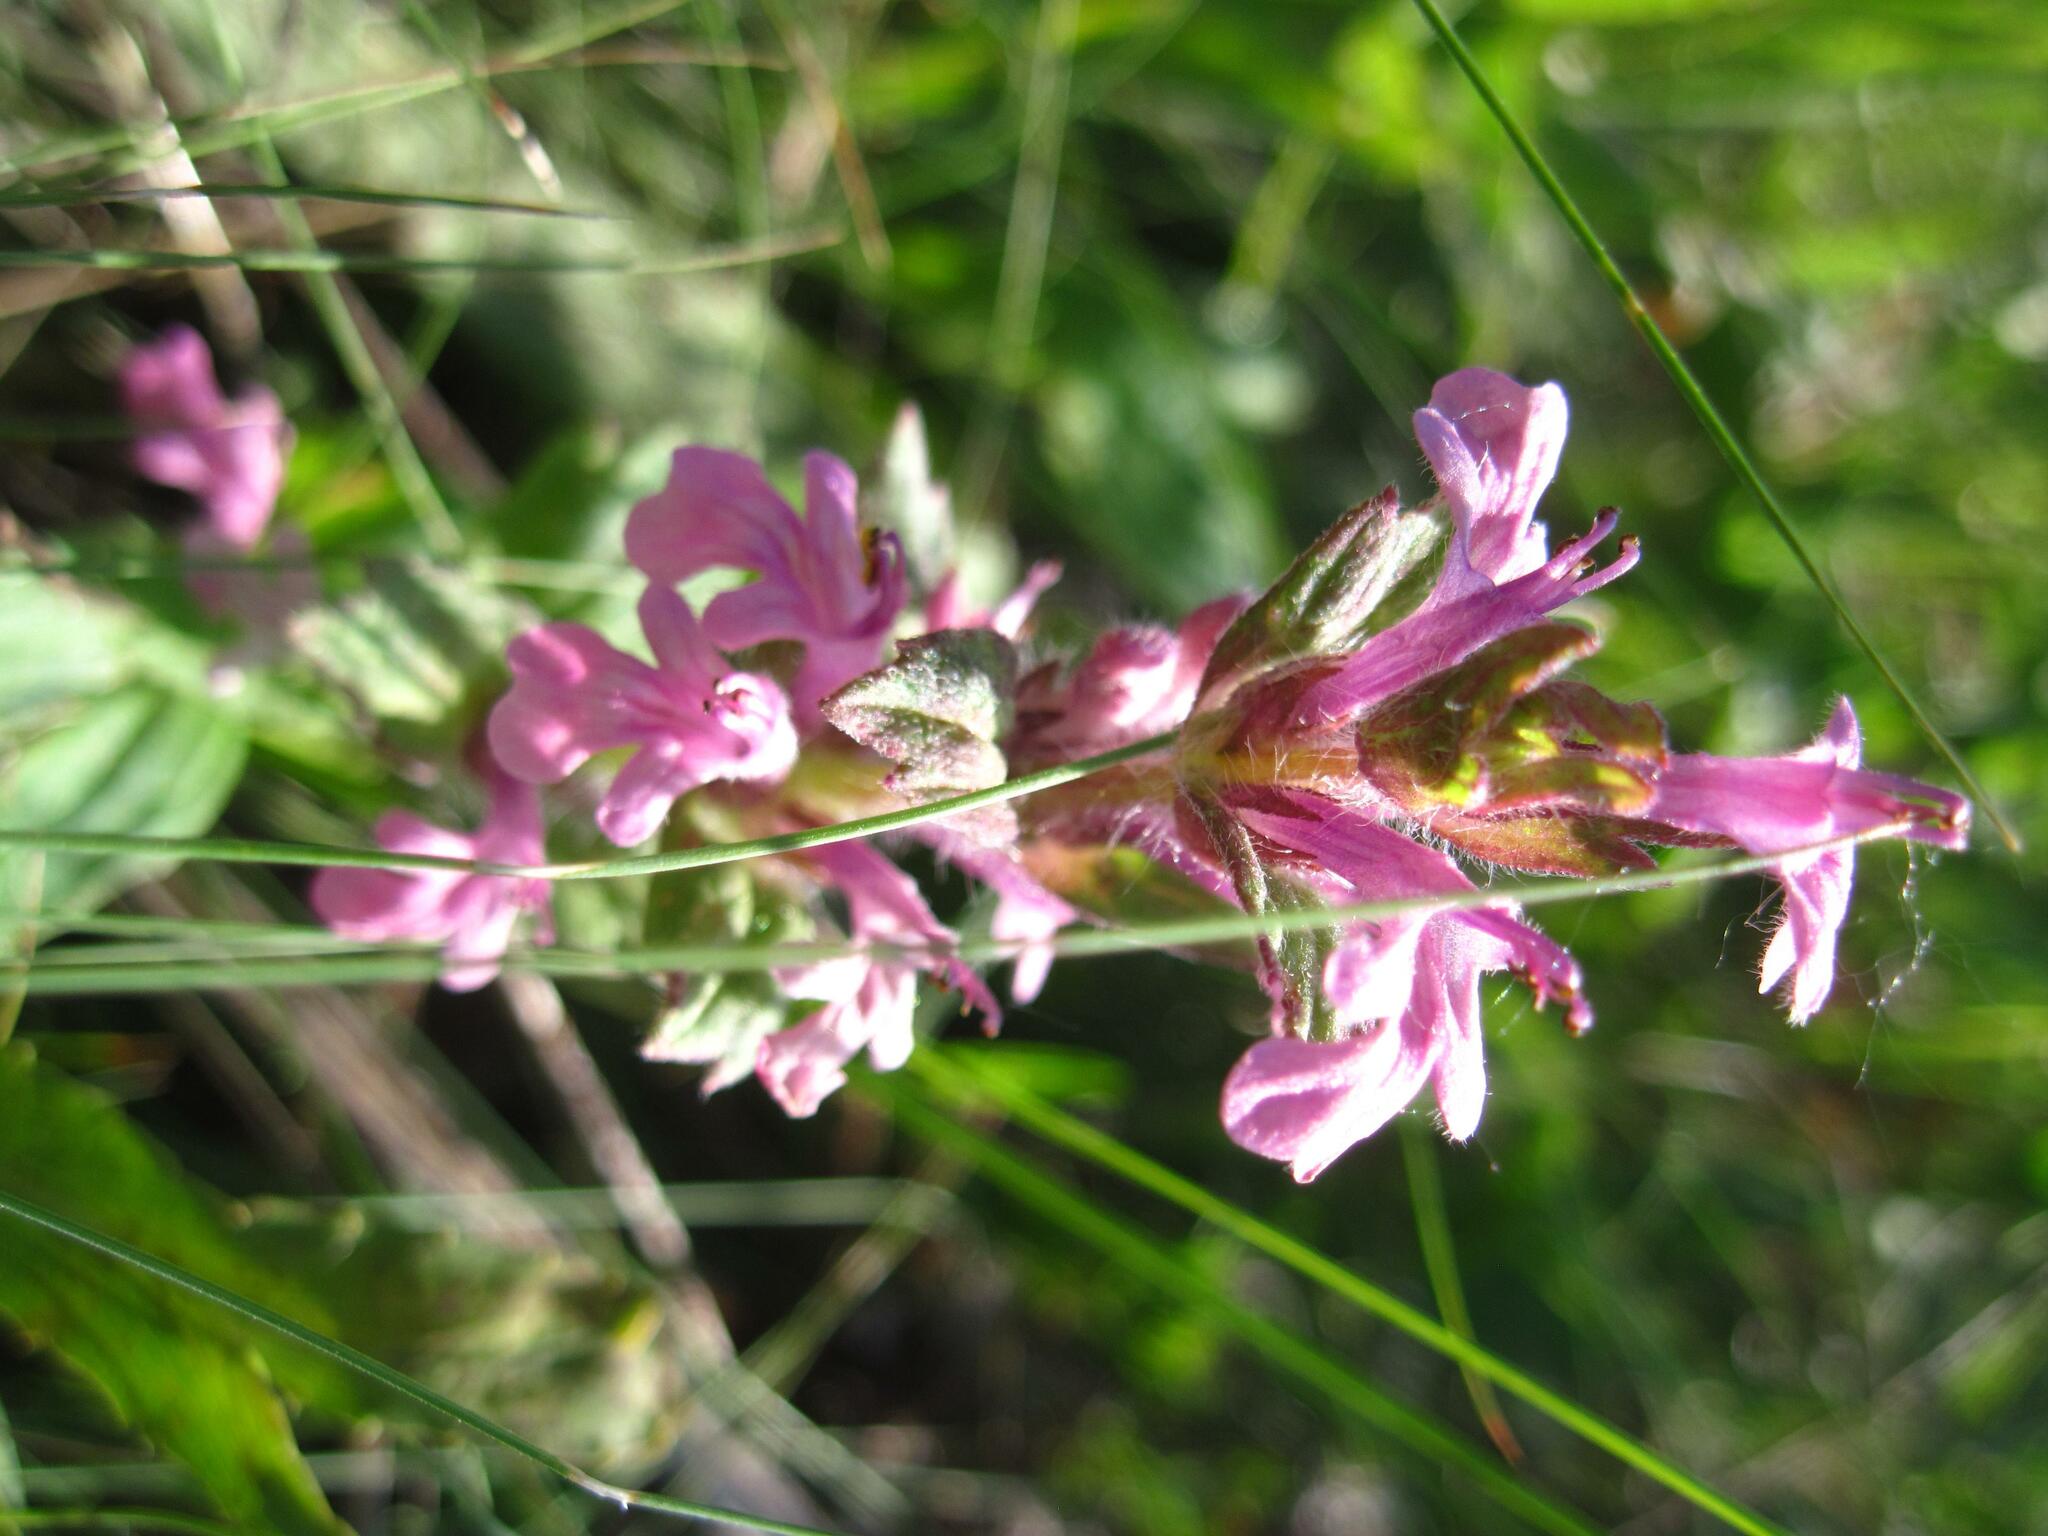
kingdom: Plantae
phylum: Tracheophyta
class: Magnoliopsida
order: Lamiales
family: Lamiaceae
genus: Ajuga
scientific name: Ajuga genevensis
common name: Blue bugle
